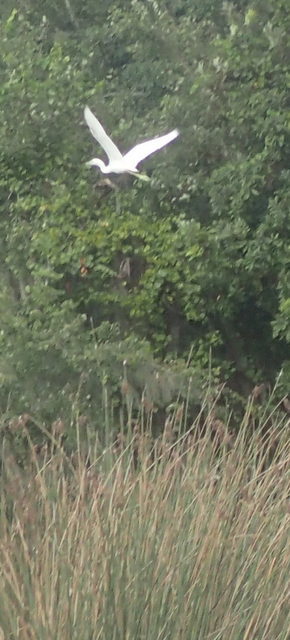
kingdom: Animalia
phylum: Chordata
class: Aves
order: Pelecaniformes
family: Ardeidae
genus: Egretta
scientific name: Egretta caerulea
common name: Little blue heron
